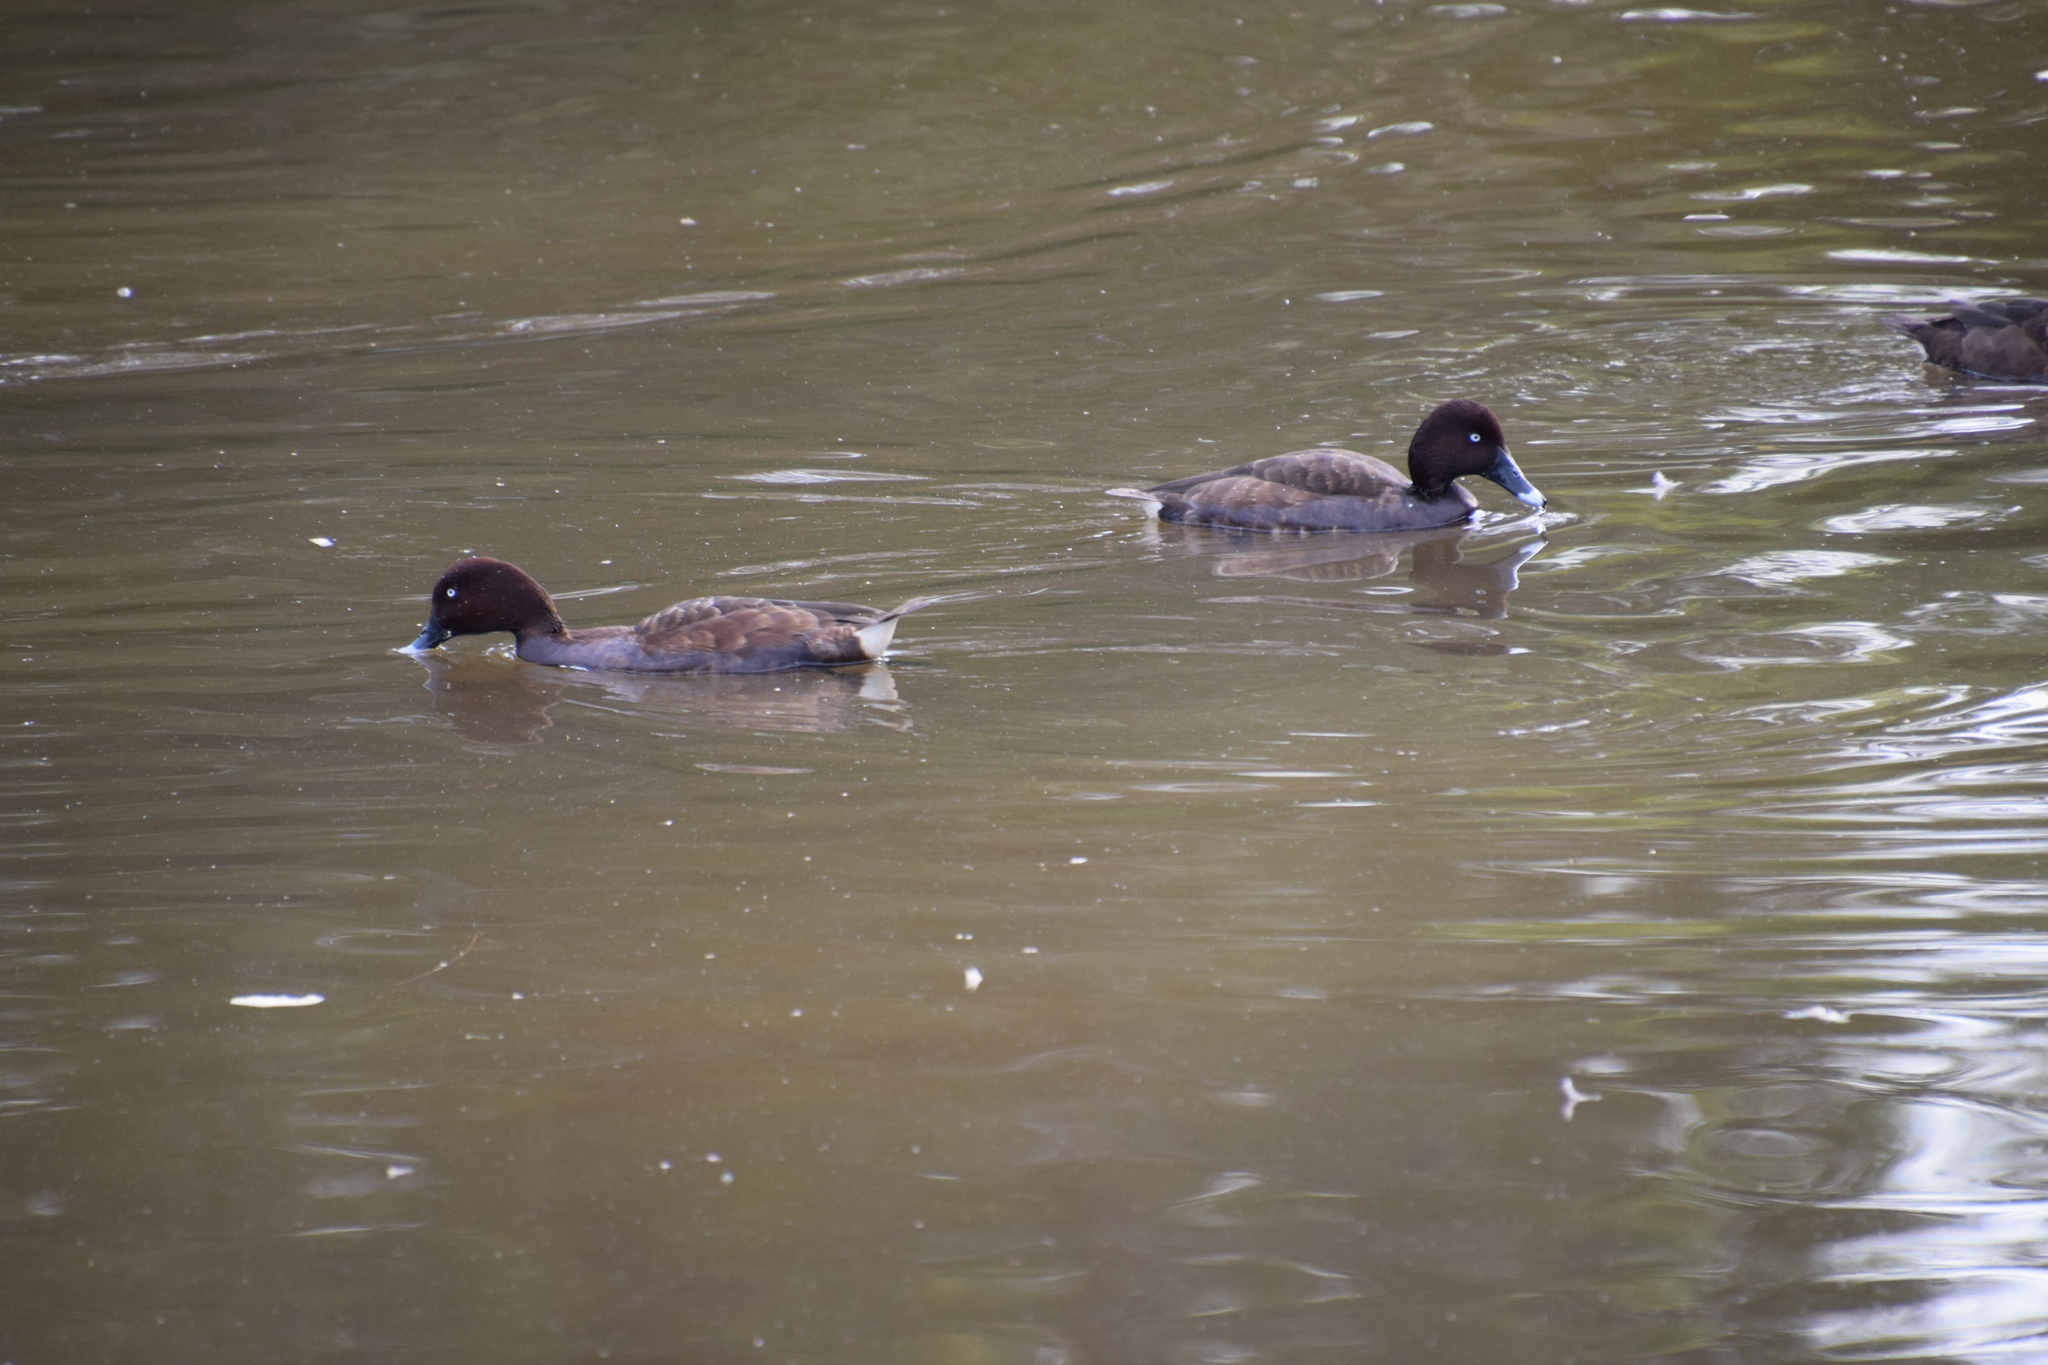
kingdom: Animalia
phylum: Chordata
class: Aves
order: Anseriformes
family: Anatidae
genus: Aythya
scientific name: Aythya australis
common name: Hardhead
